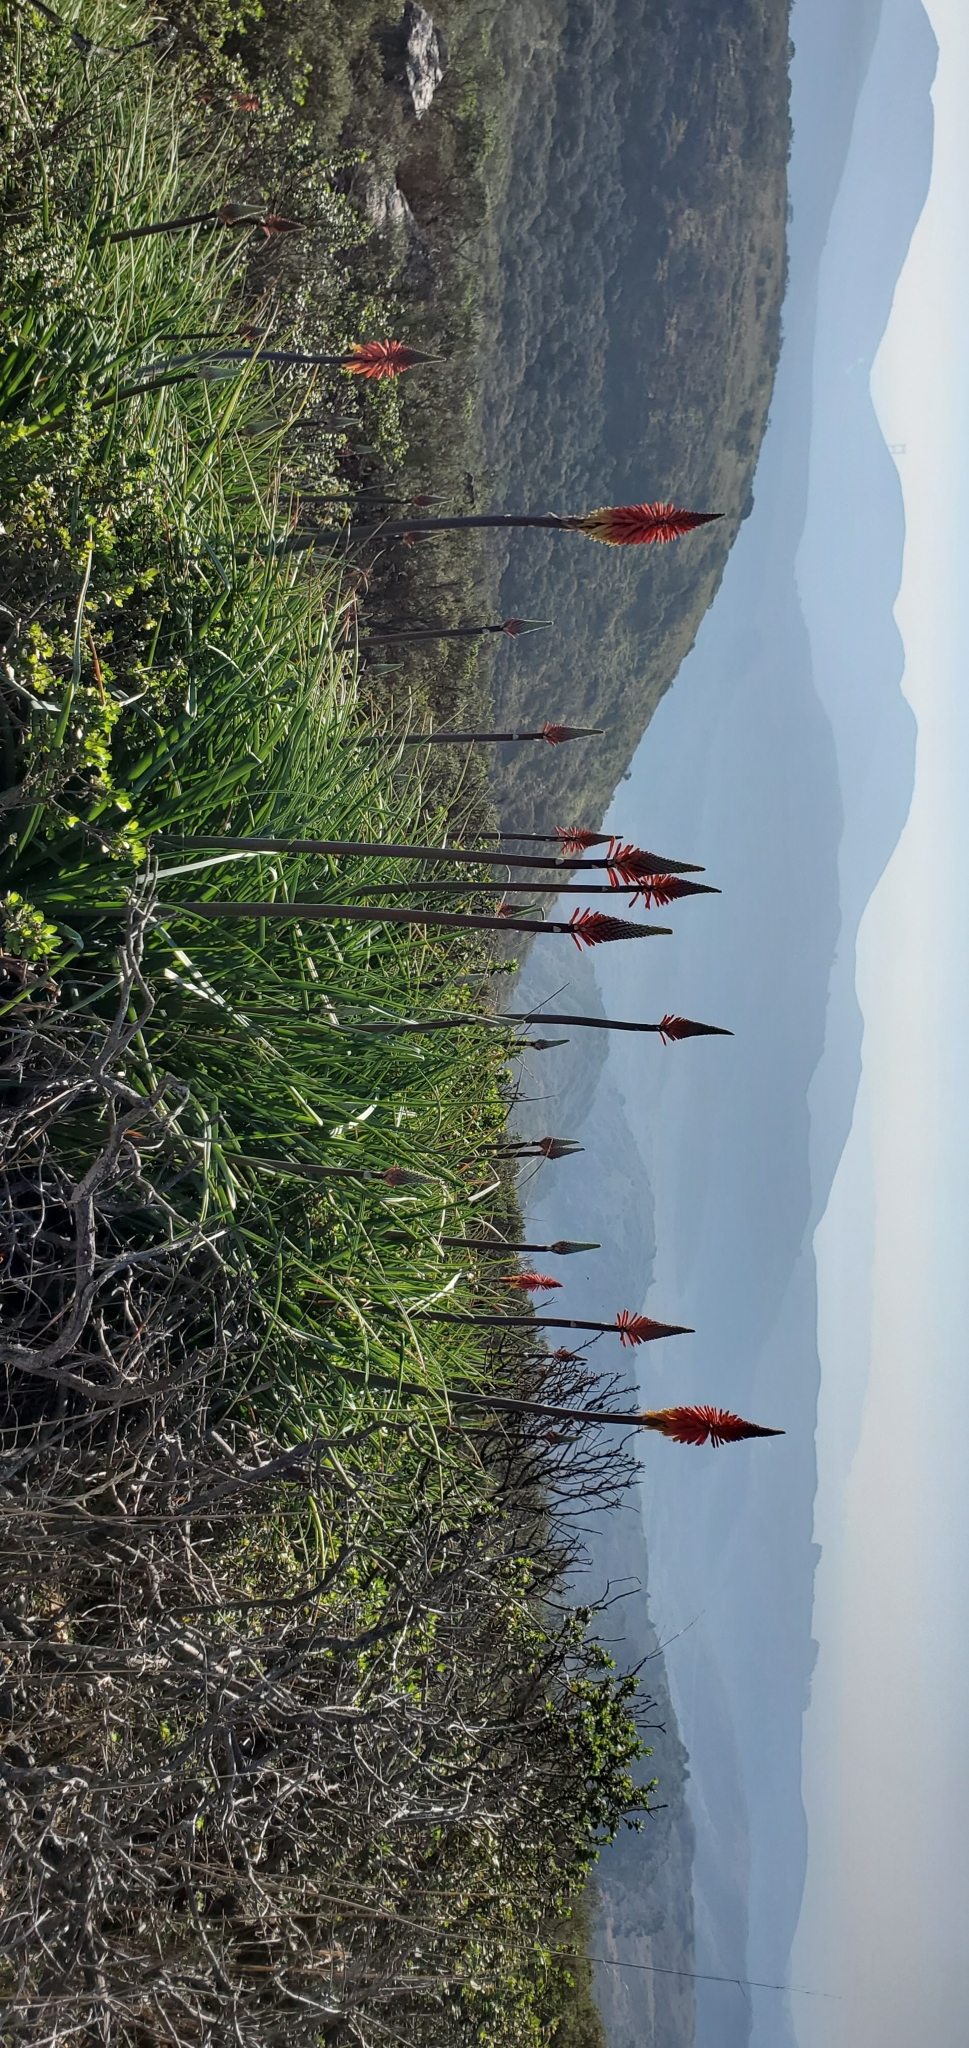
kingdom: Plantae
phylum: Tracheophyta
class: Liliopsida
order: Asparagales
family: Asphodelaceae
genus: Kniphofia
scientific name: Kniphofia uvaria
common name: Red-hot-poker
